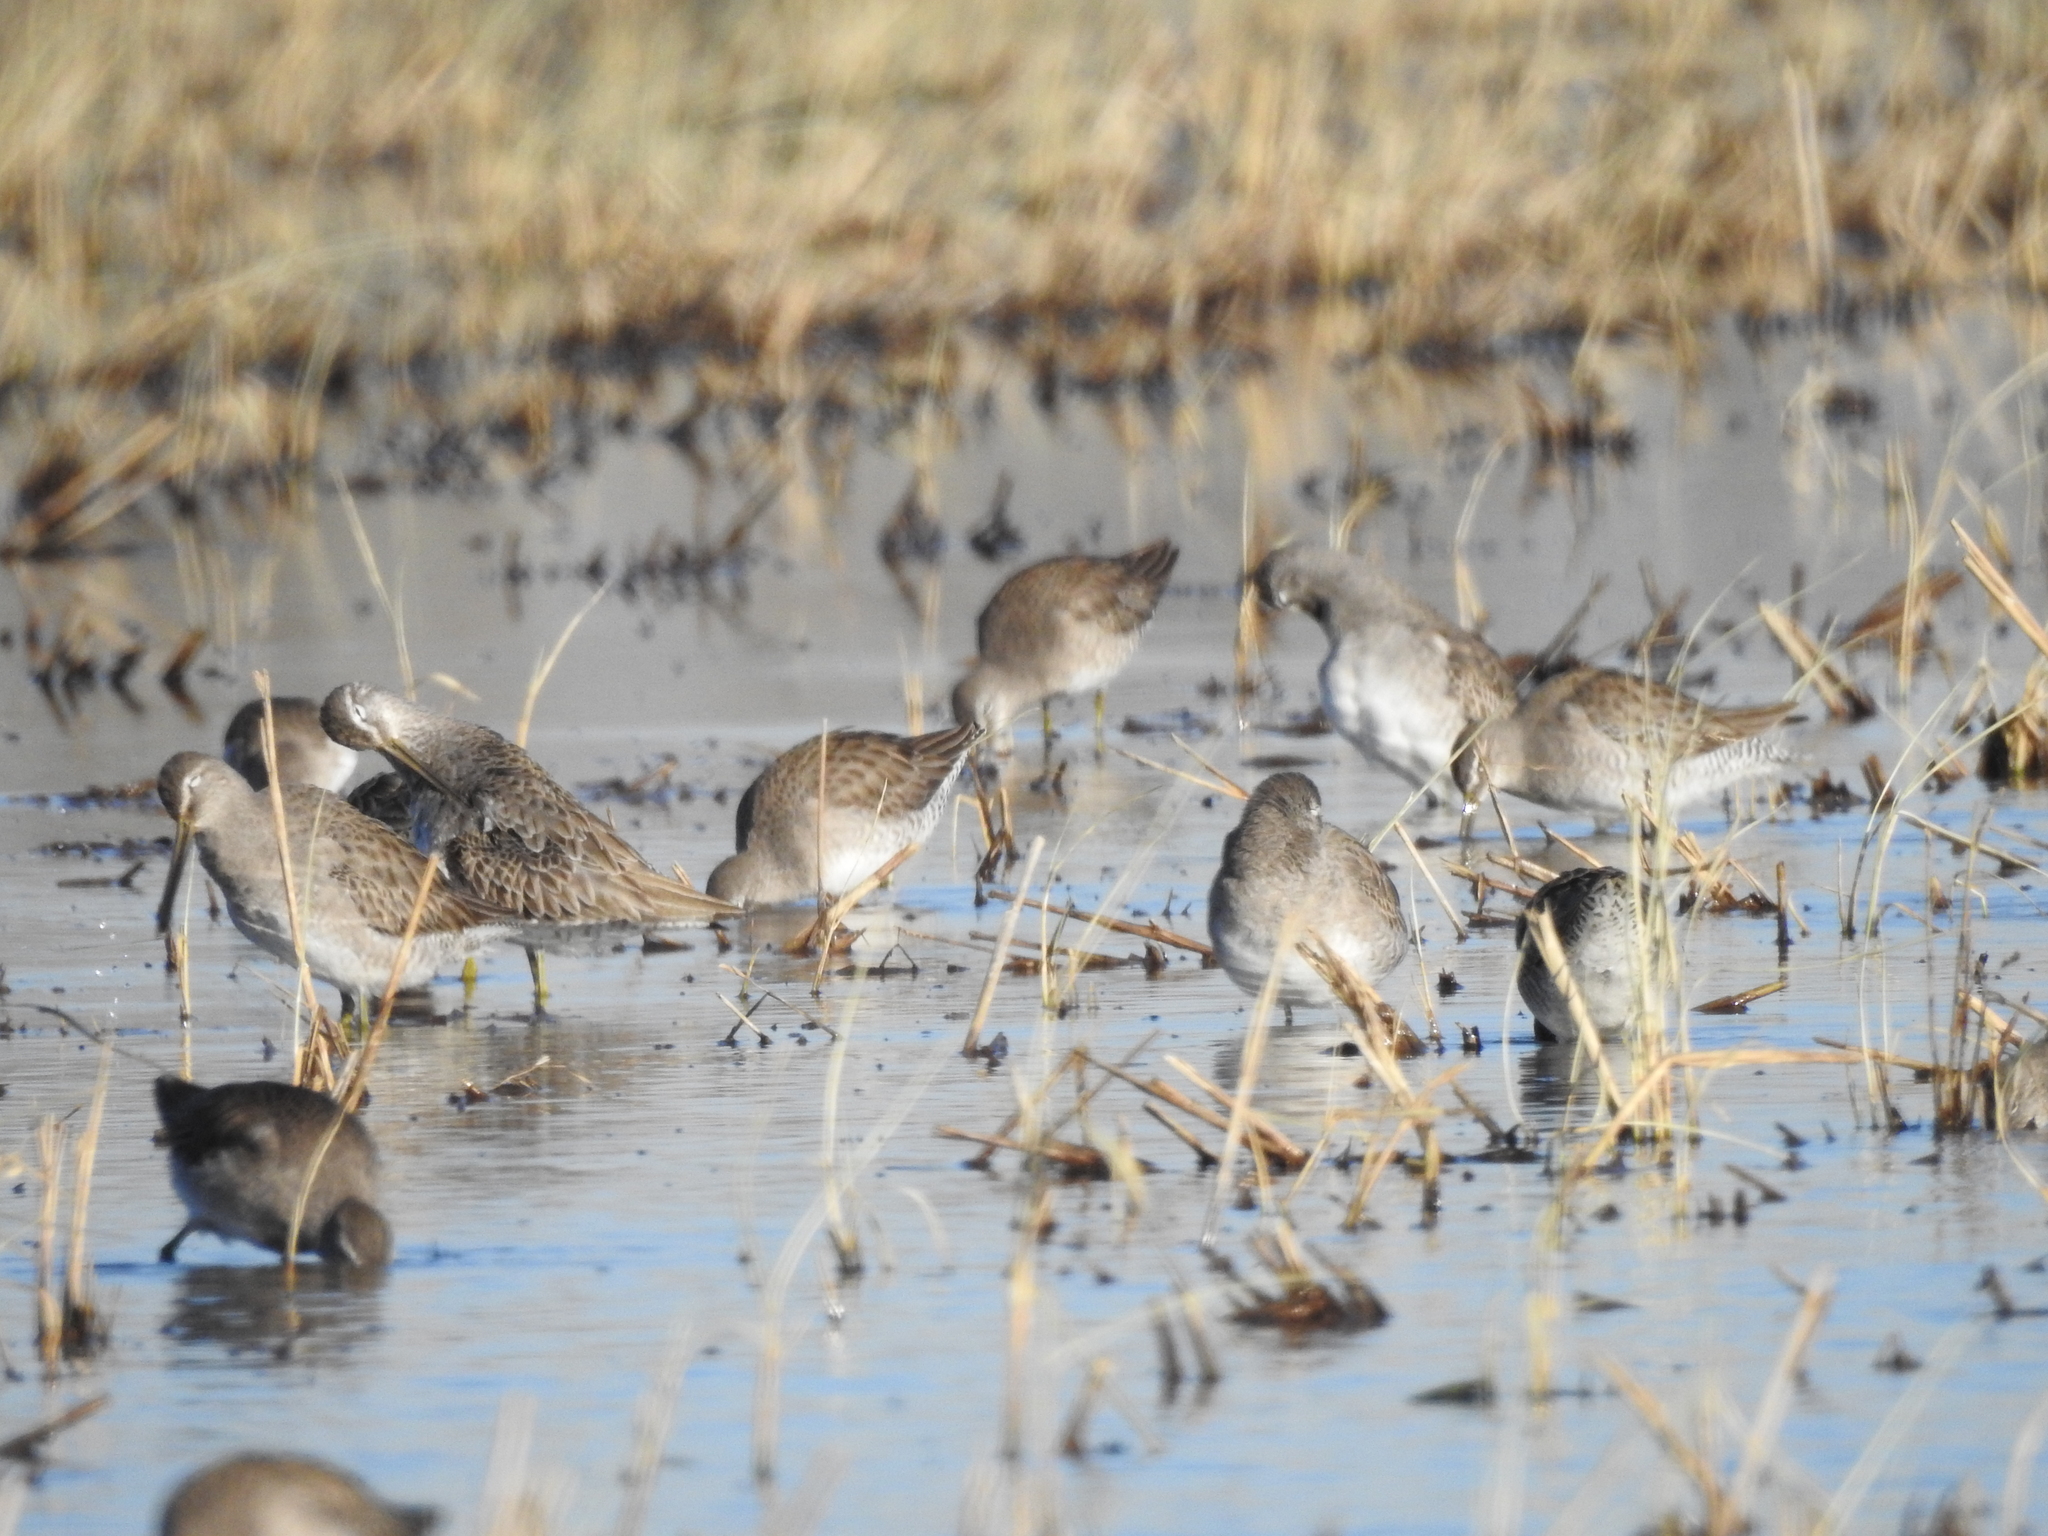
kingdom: Animalia
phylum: Chordata
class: Aves
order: Charadriiformes
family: Scolopacidae
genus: Limnodromus
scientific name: Limnodromus scolopaceus
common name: Long-billed dowitcher
